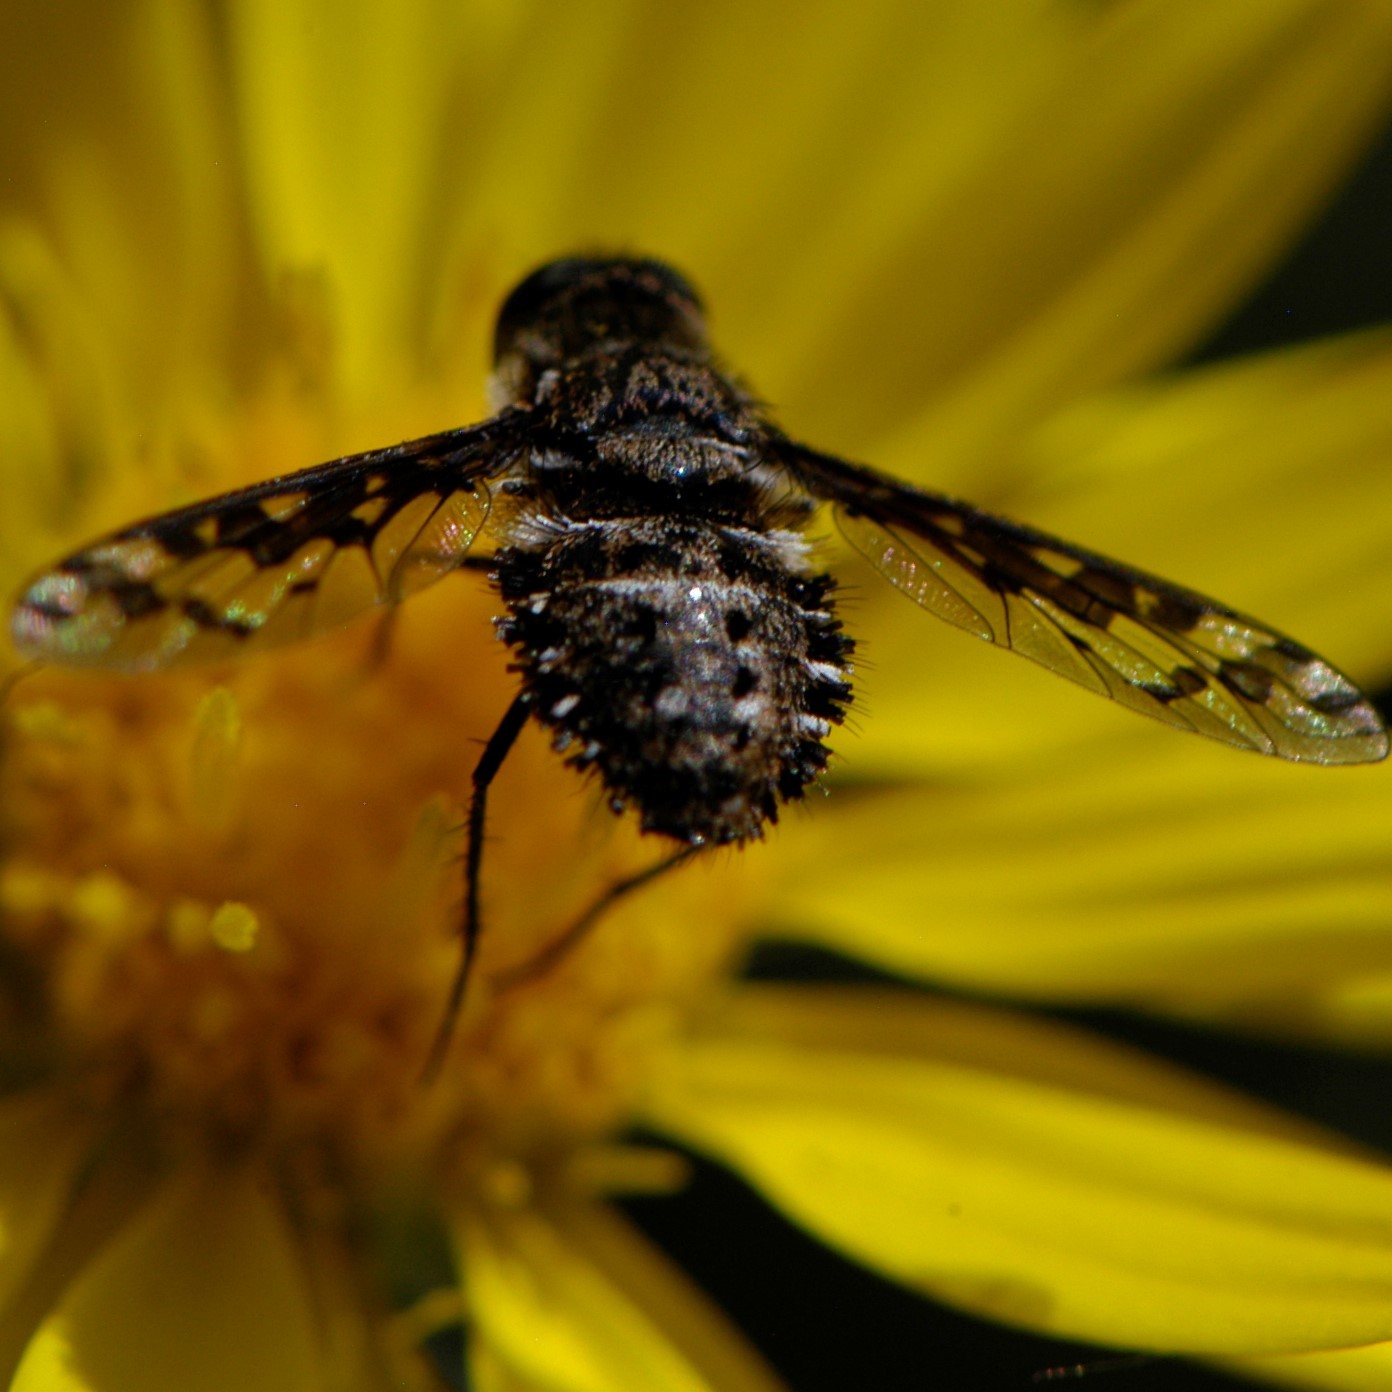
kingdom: Animalia
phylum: Arthropoda
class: Insecta
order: Diptera
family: Bombyliidae
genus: Lepidanthrax
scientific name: Lepidanthrax
